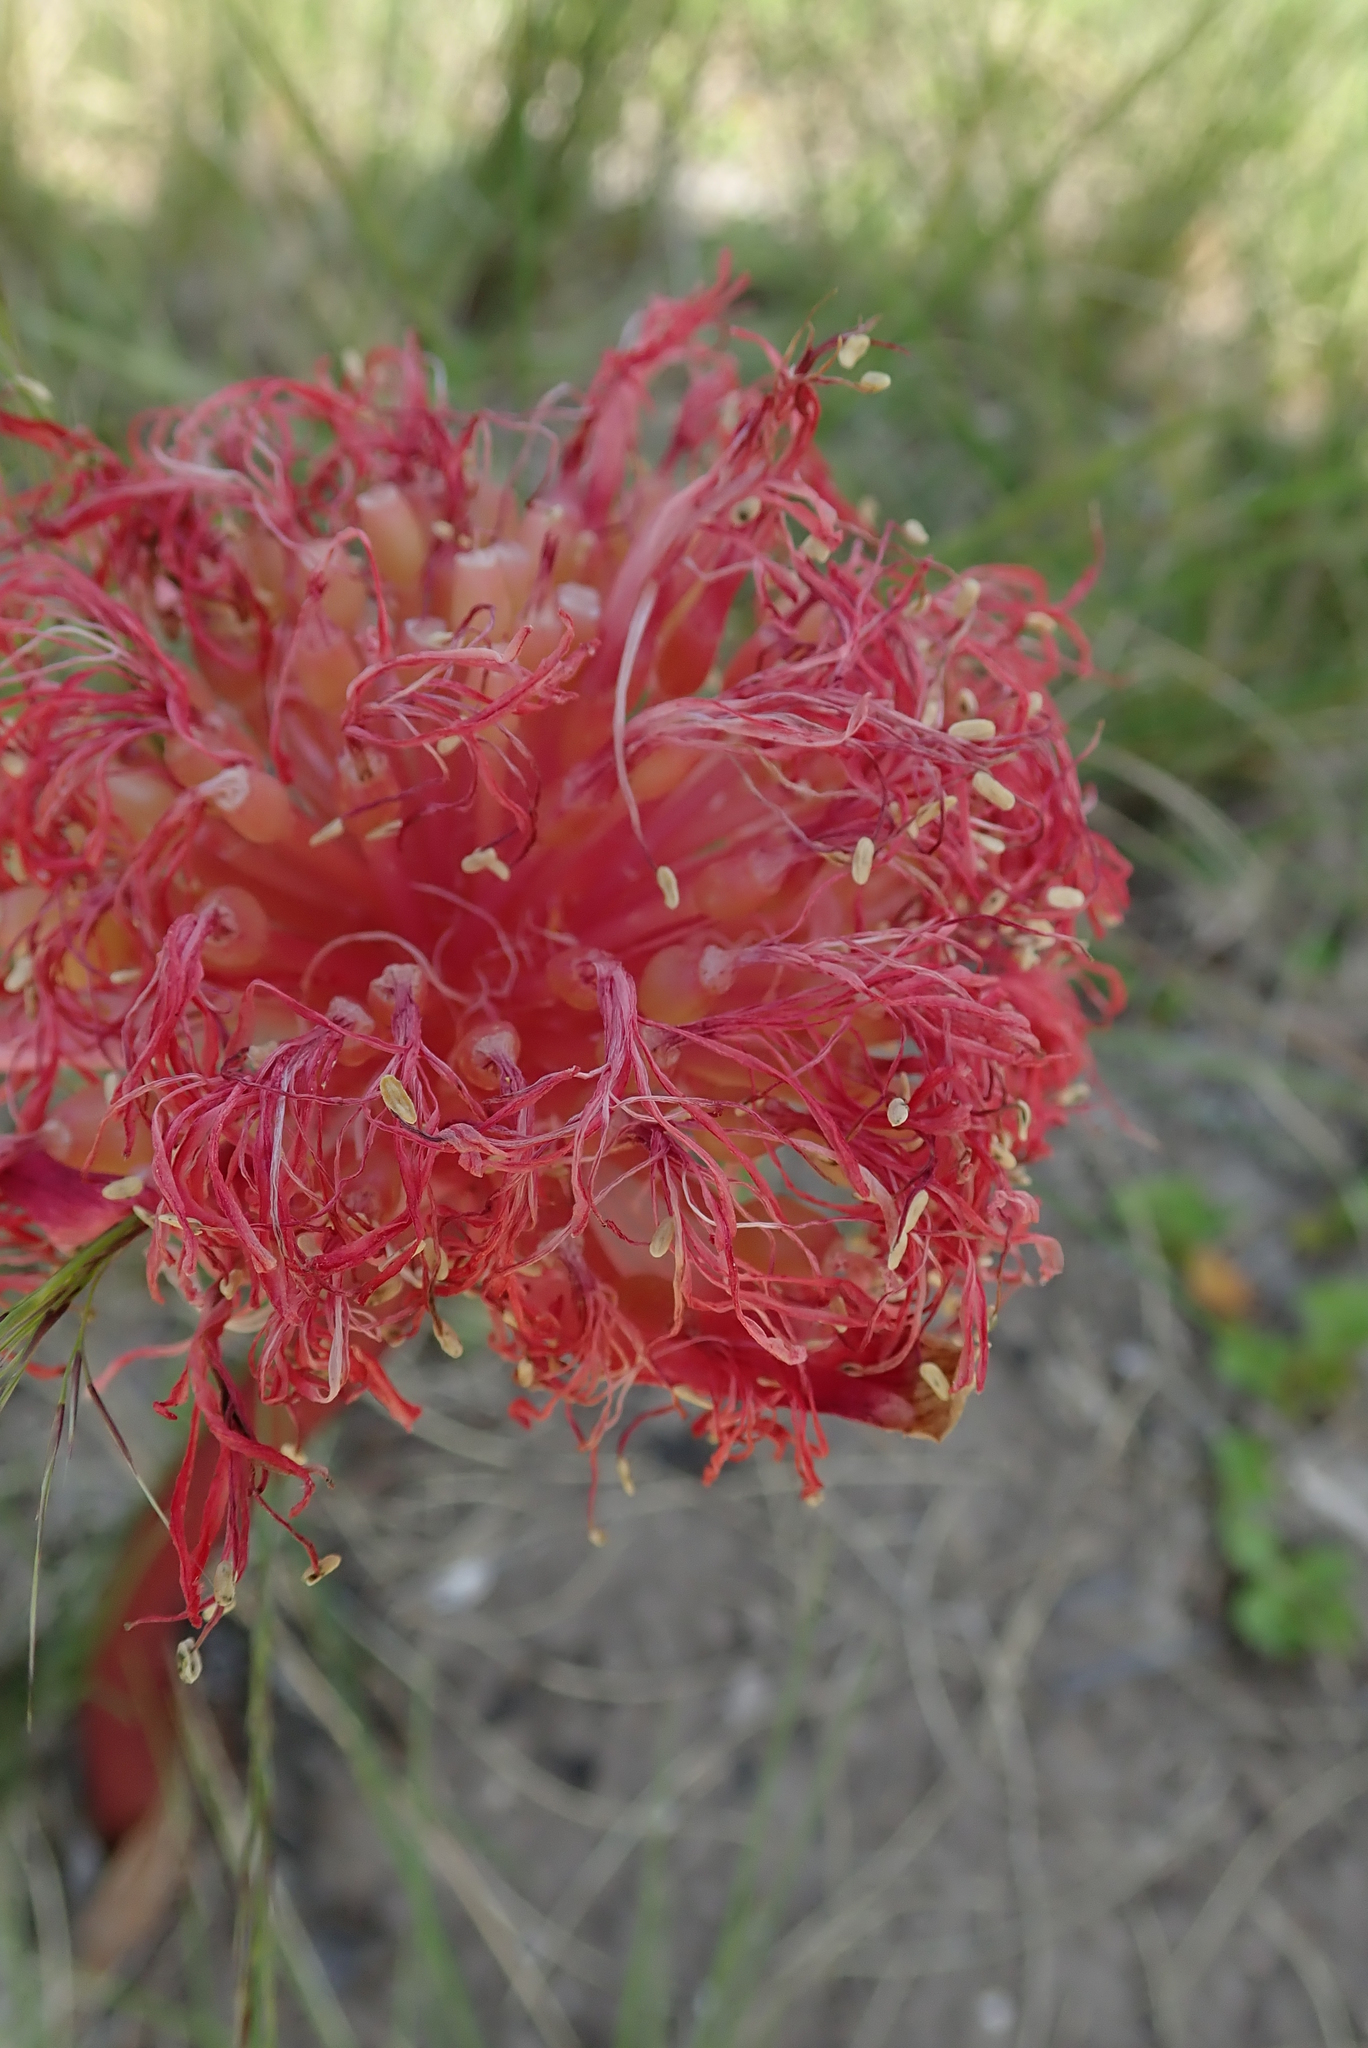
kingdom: Plantae
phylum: Tracheophyta
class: Liliopsida
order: Asparagales
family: Amaryllidaceae
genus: Haemanthus
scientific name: Haemanthus sanguineus
